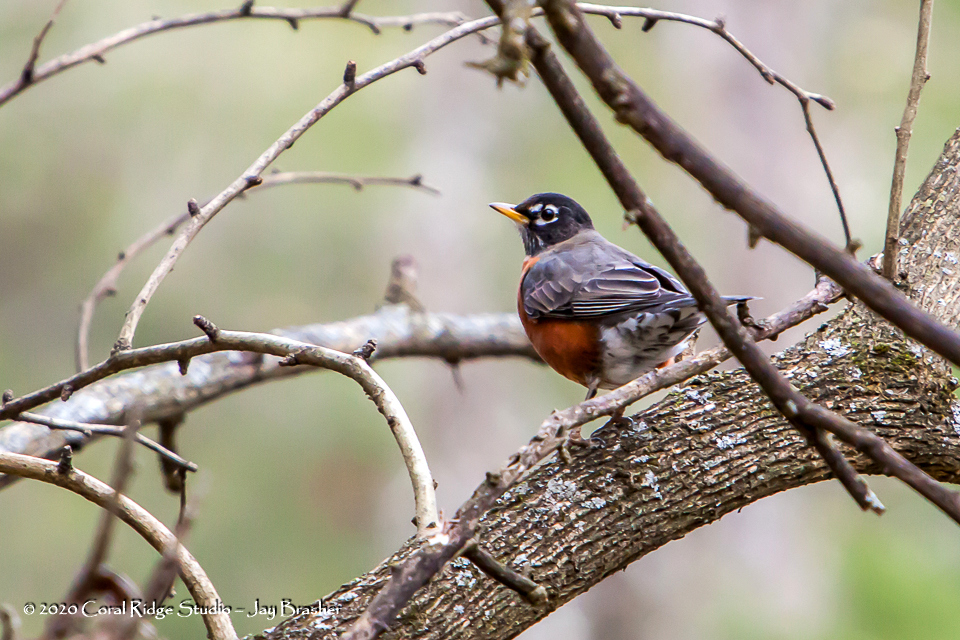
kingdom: Animalia
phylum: Chordata
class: Aves
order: Passeriformes
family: Turdidae
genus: Turdus
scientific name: Turdus migratorius
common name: American robin
